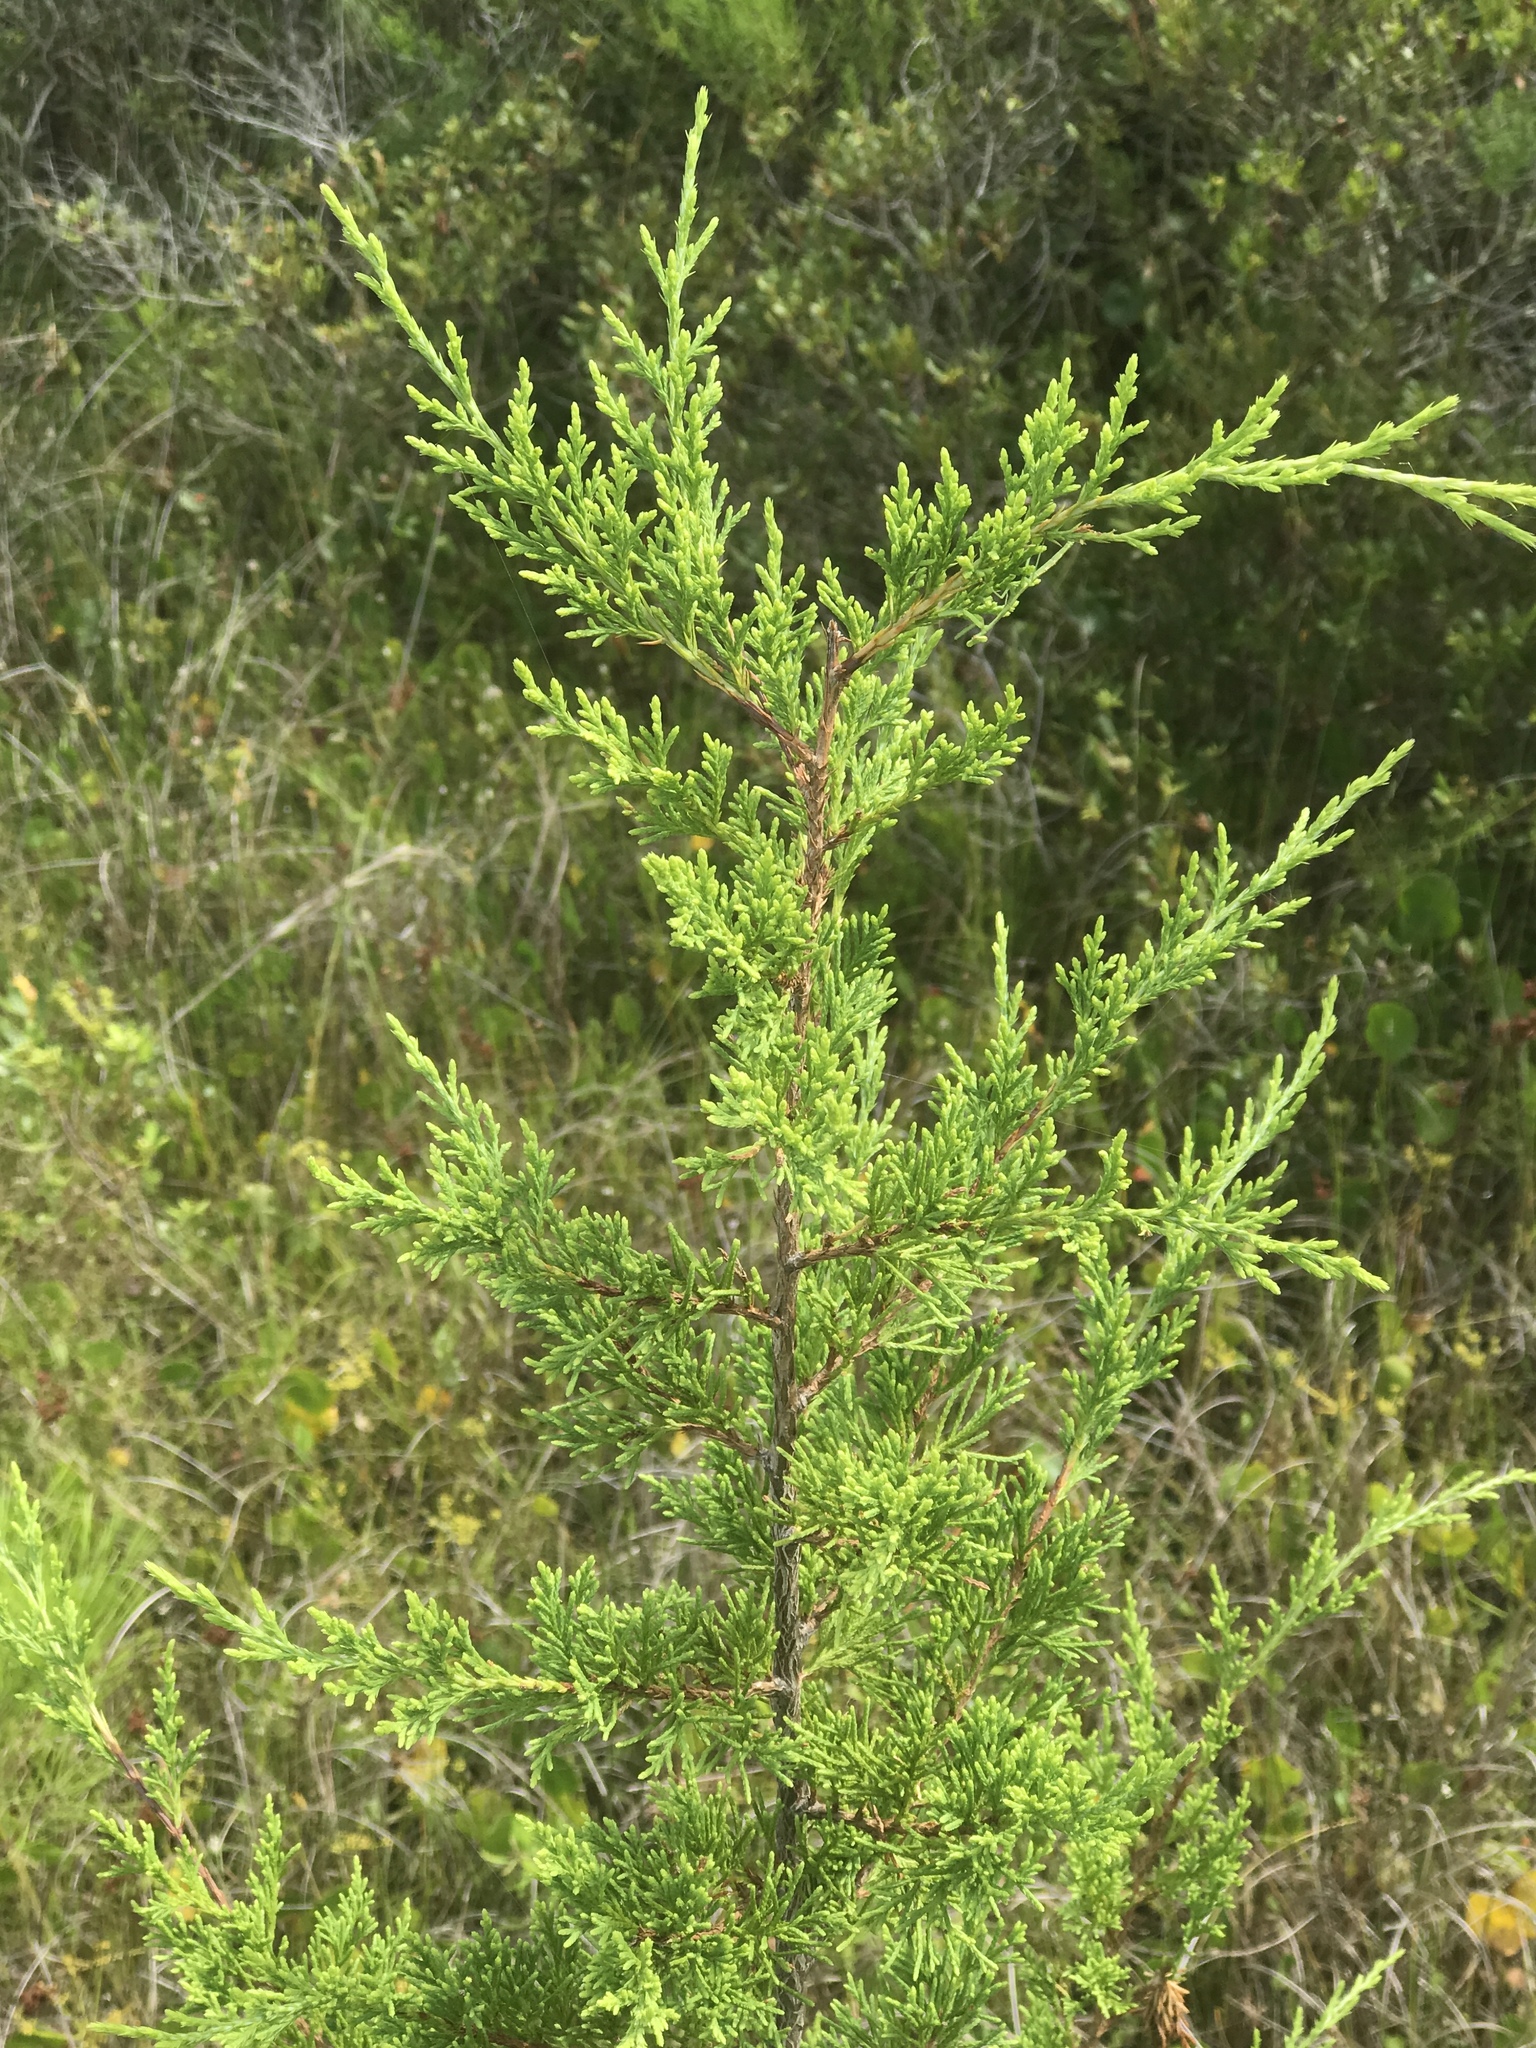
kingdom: Plantae
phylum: Tracheophyta
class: Pinopsida
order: Pinales
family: Cupressaceae
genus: Juniperus
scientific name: Juniperus virginiana
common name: Red juniper
